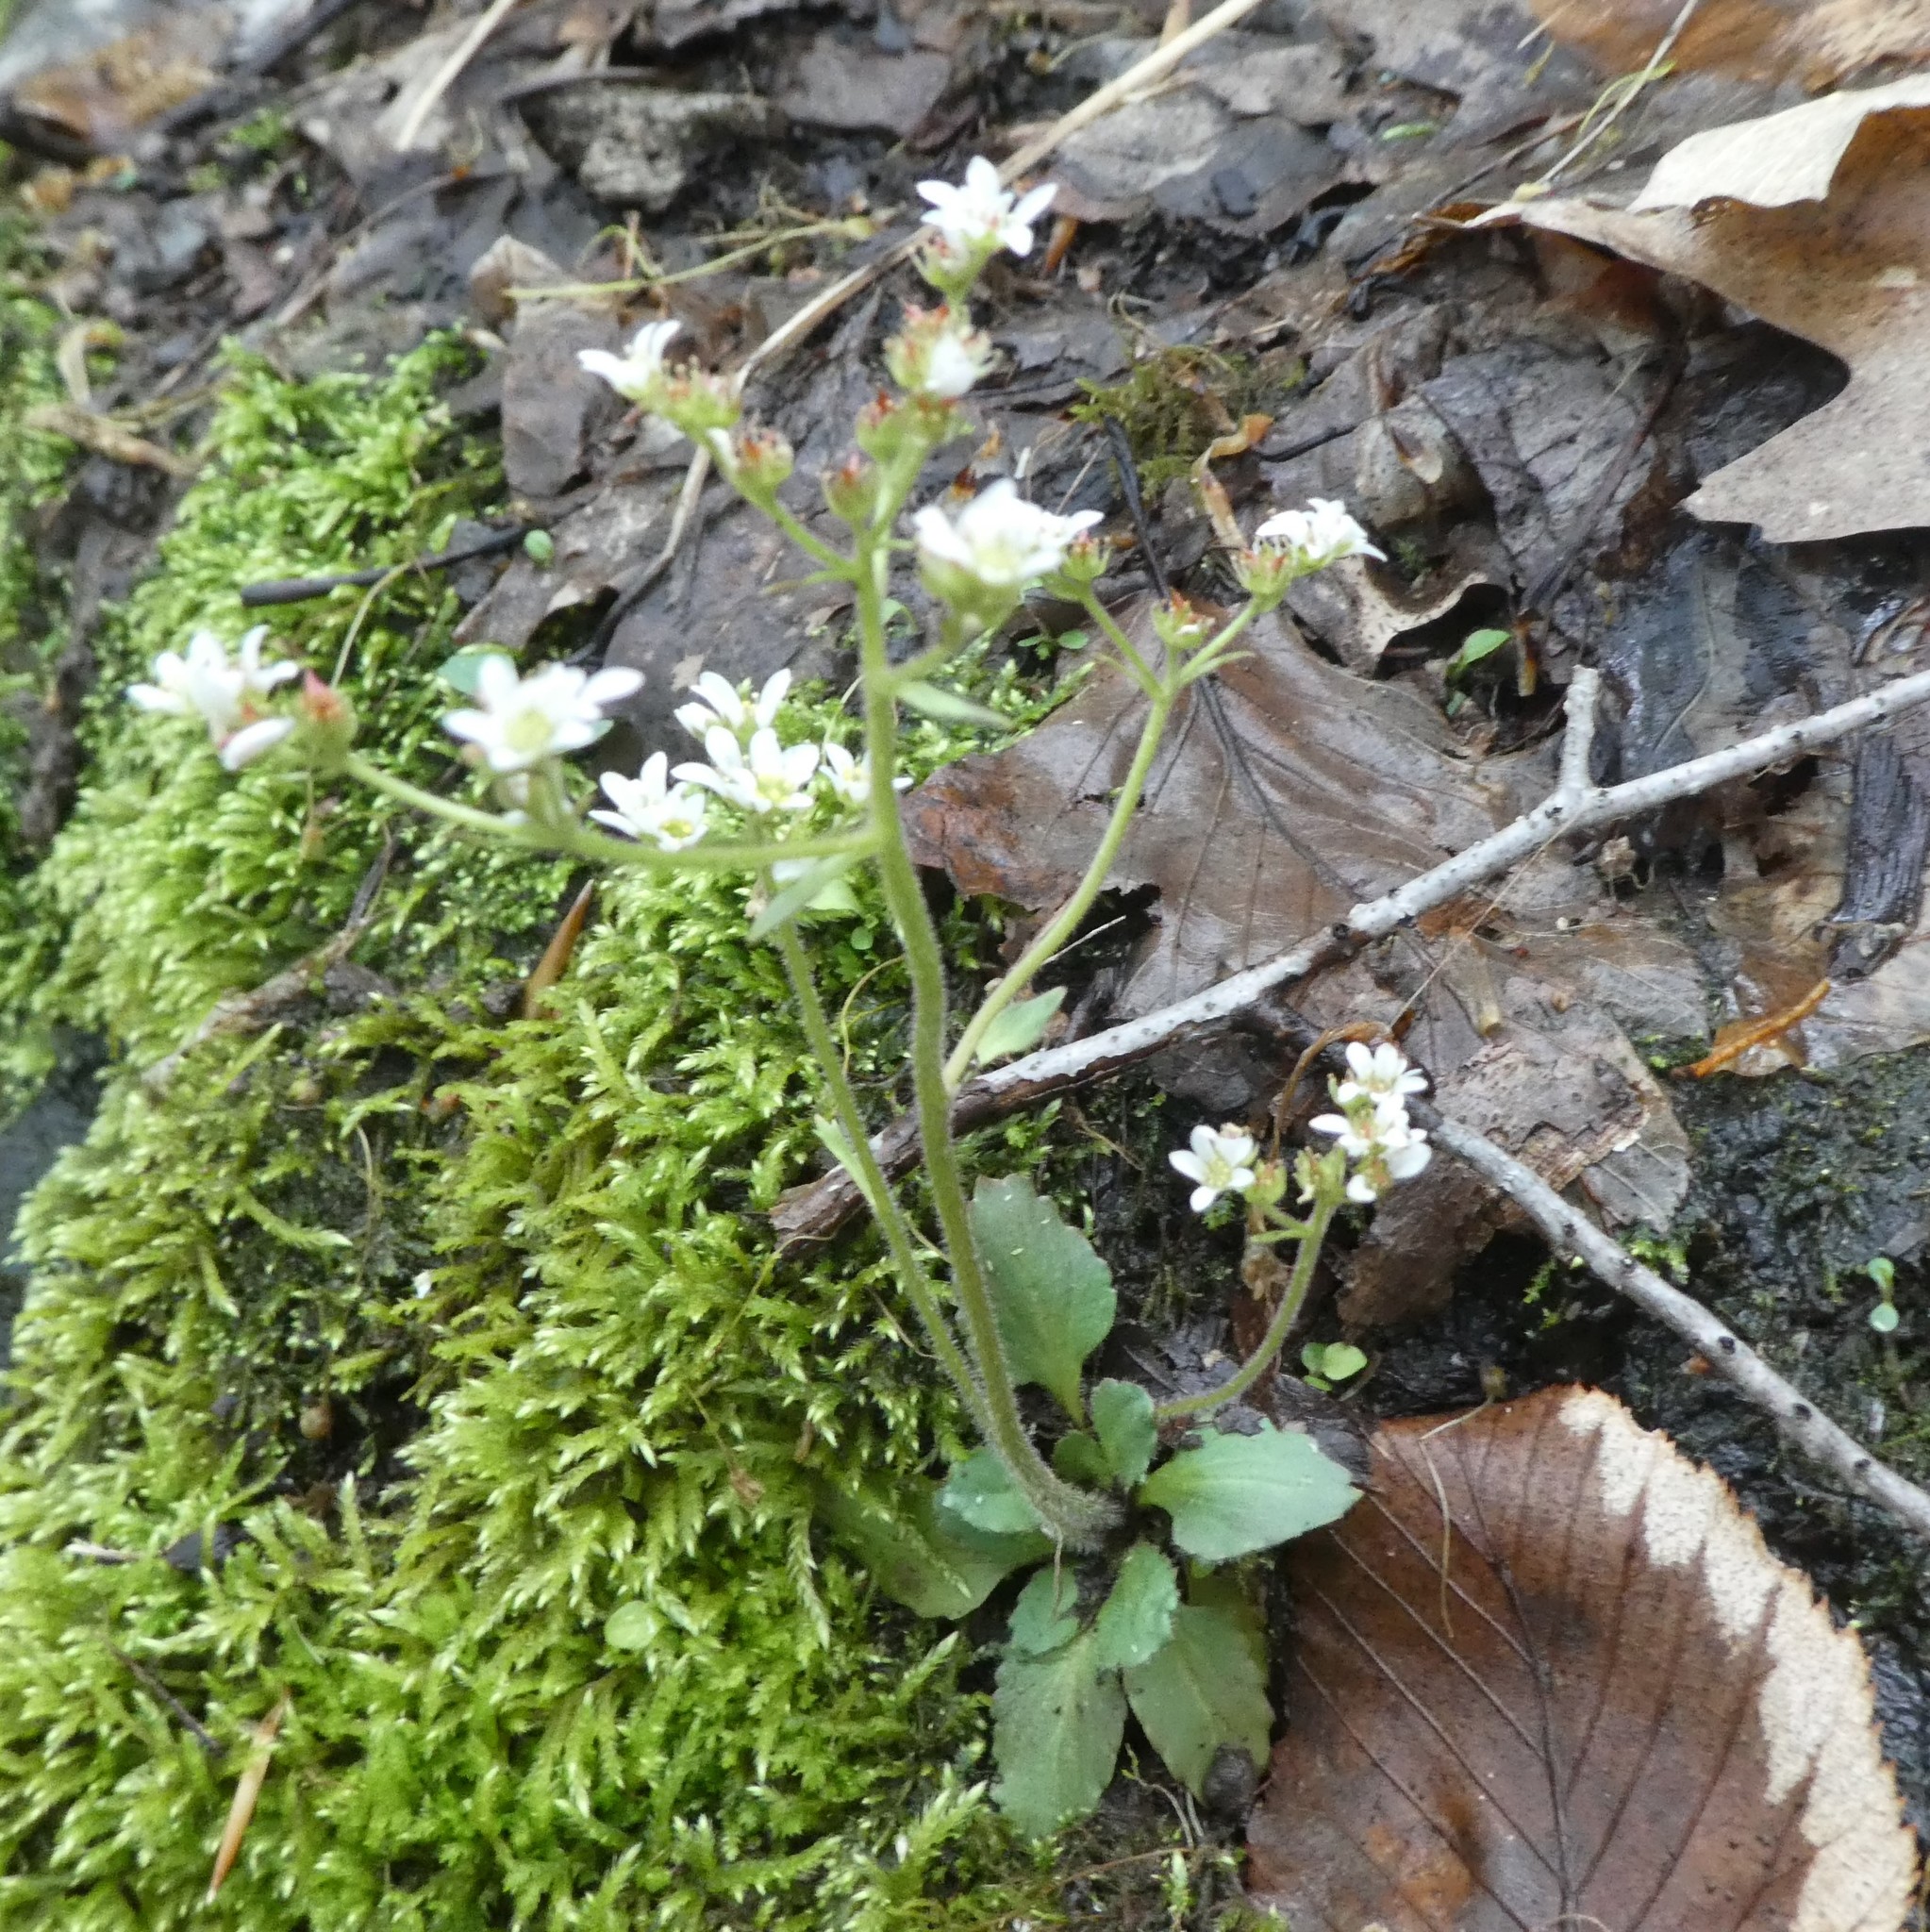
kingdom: Plantae
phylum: Tracheophyta
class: Magnoliopsida
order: Saxifragales
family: Saxifragaceae
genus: Micranthes
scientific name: Micranthes virginiensis
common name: Early saxifrage
